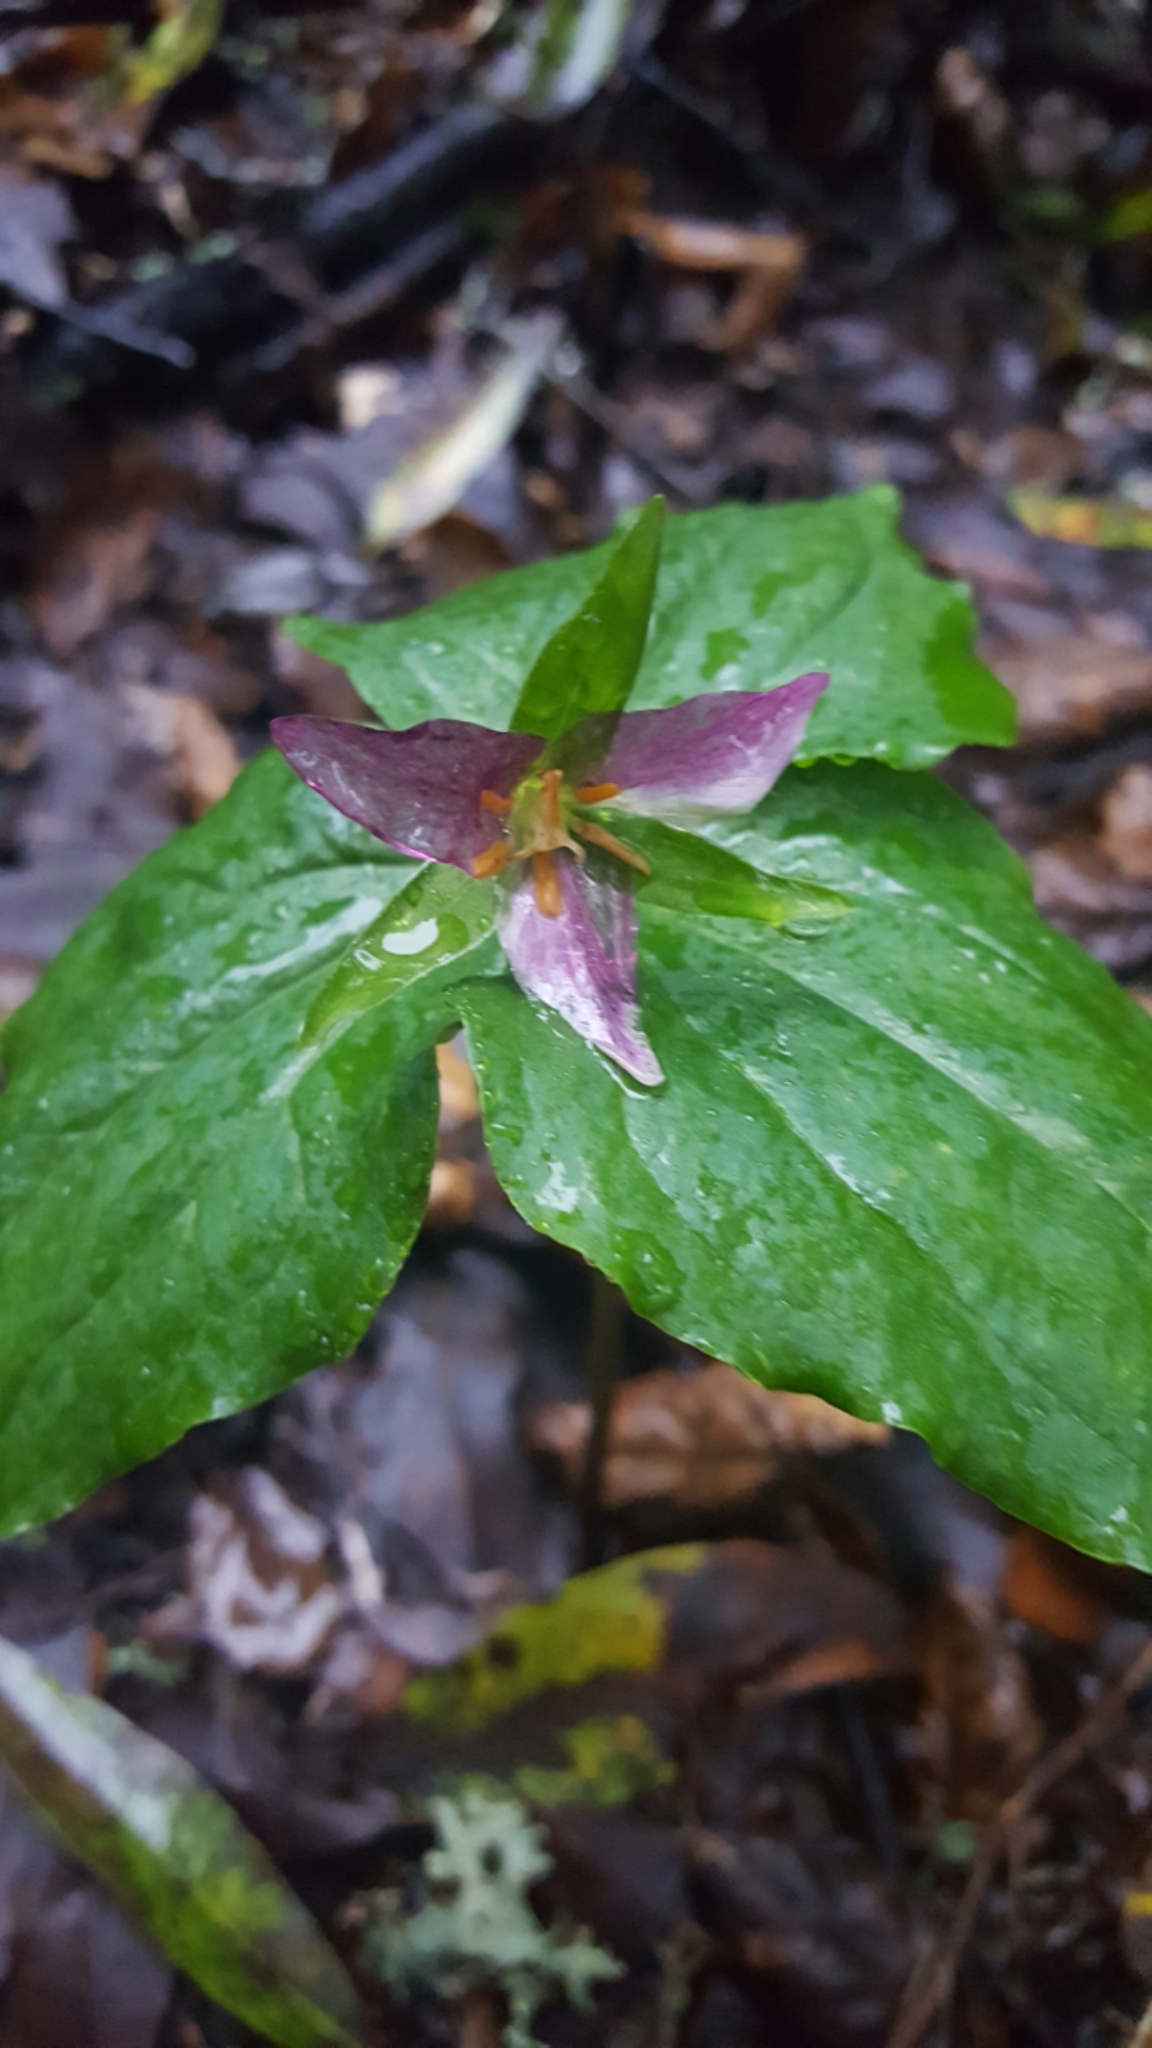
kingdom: Plantae
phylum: Tracheophyta
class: Liliopsida
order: Liliales
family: Melanthiaceae
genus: Trillium
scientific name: Trillium ovatum
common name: Pacific trillium
